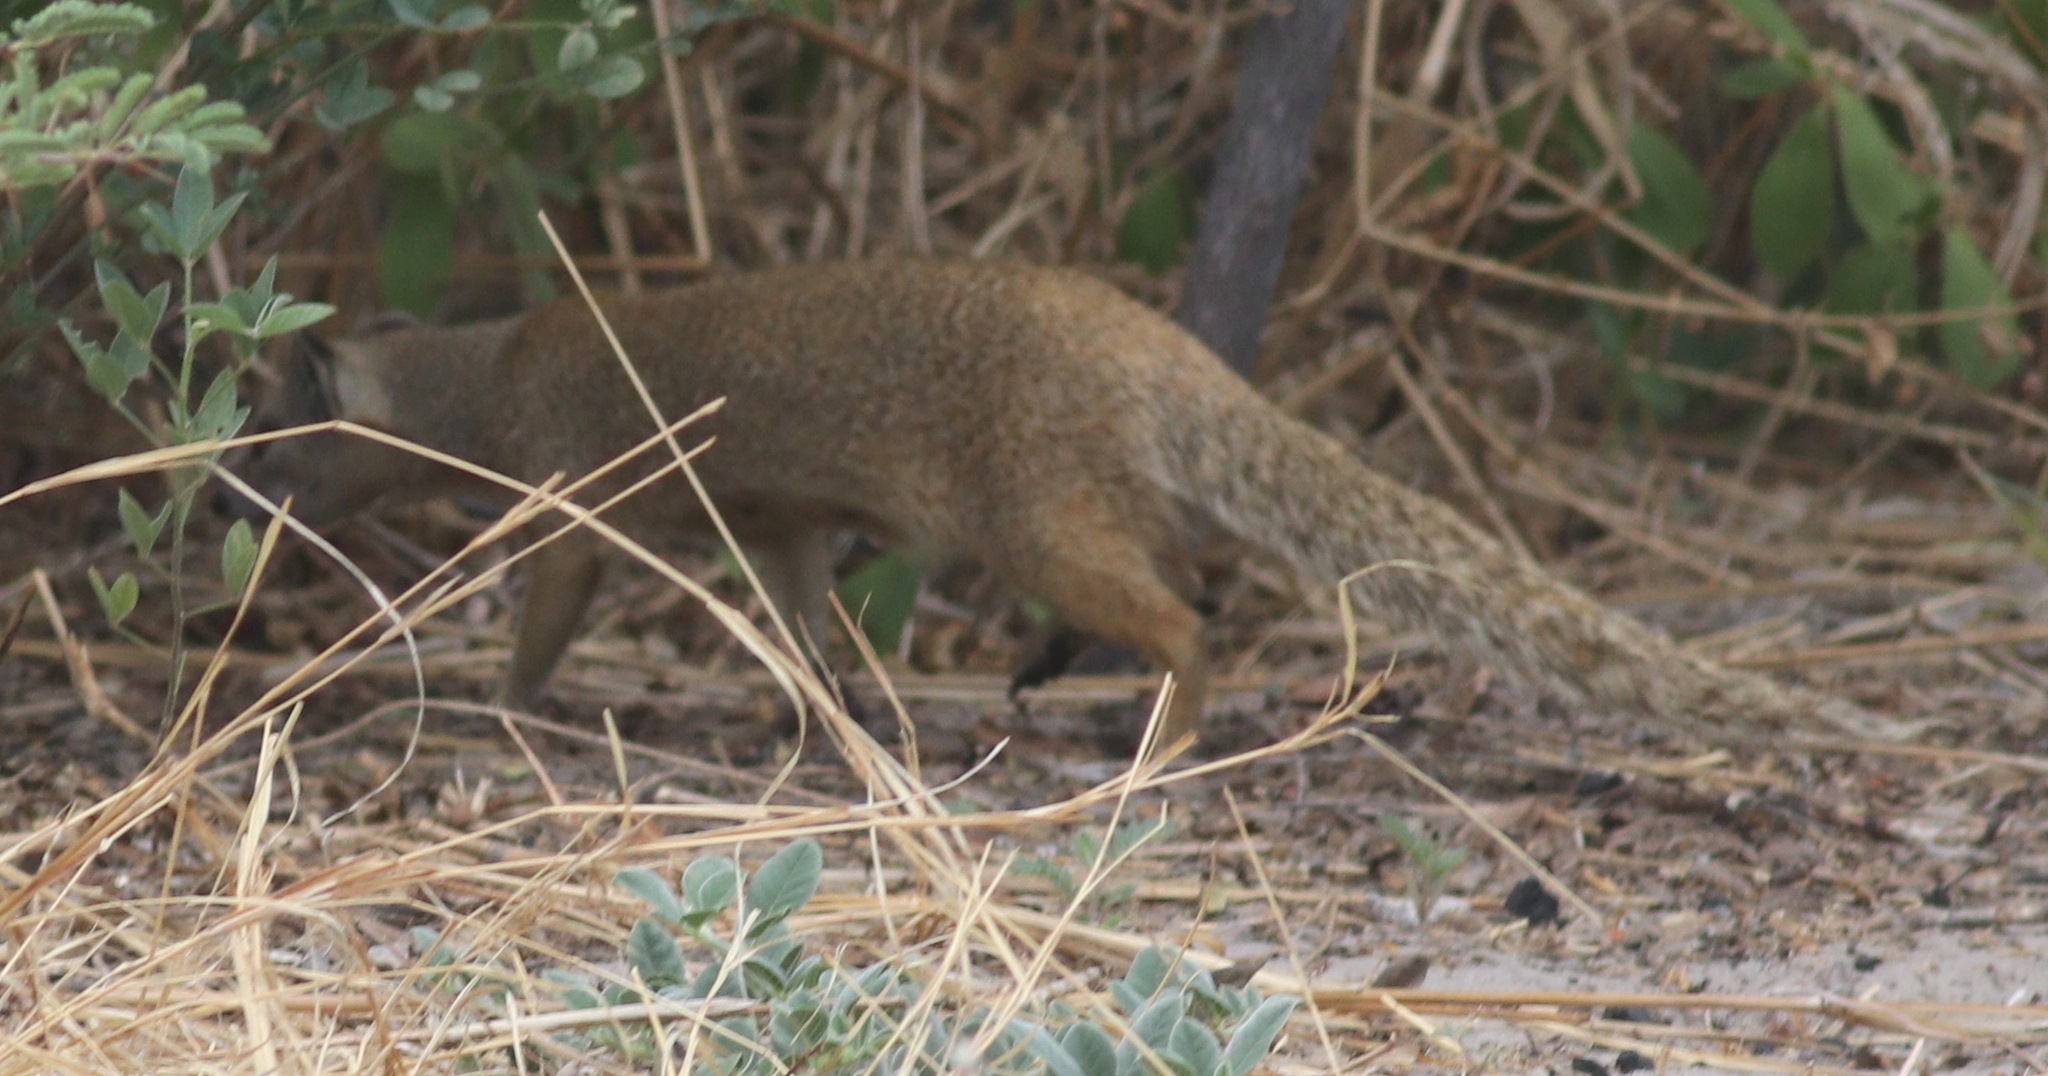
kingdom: Animalia
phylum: Chordata
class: Mammalia
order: Carnivora
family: Herpestidae
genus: Cynictis
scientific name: Cynictis penicillata
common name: Yellow mongoose
